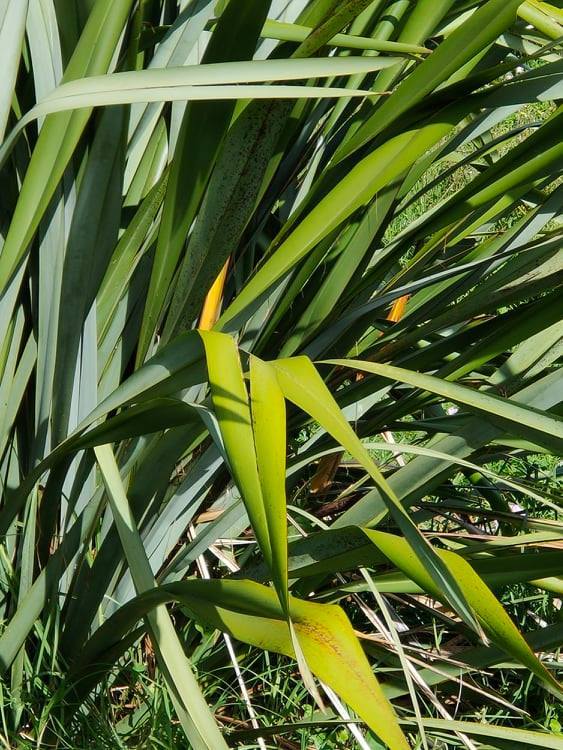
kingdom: Plantae
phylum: Tracheophyta
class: Liliopsida
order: Asparagales
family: Asphodelaceae
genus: Phormium
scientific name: Phormium tenax
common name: New zealand flax
